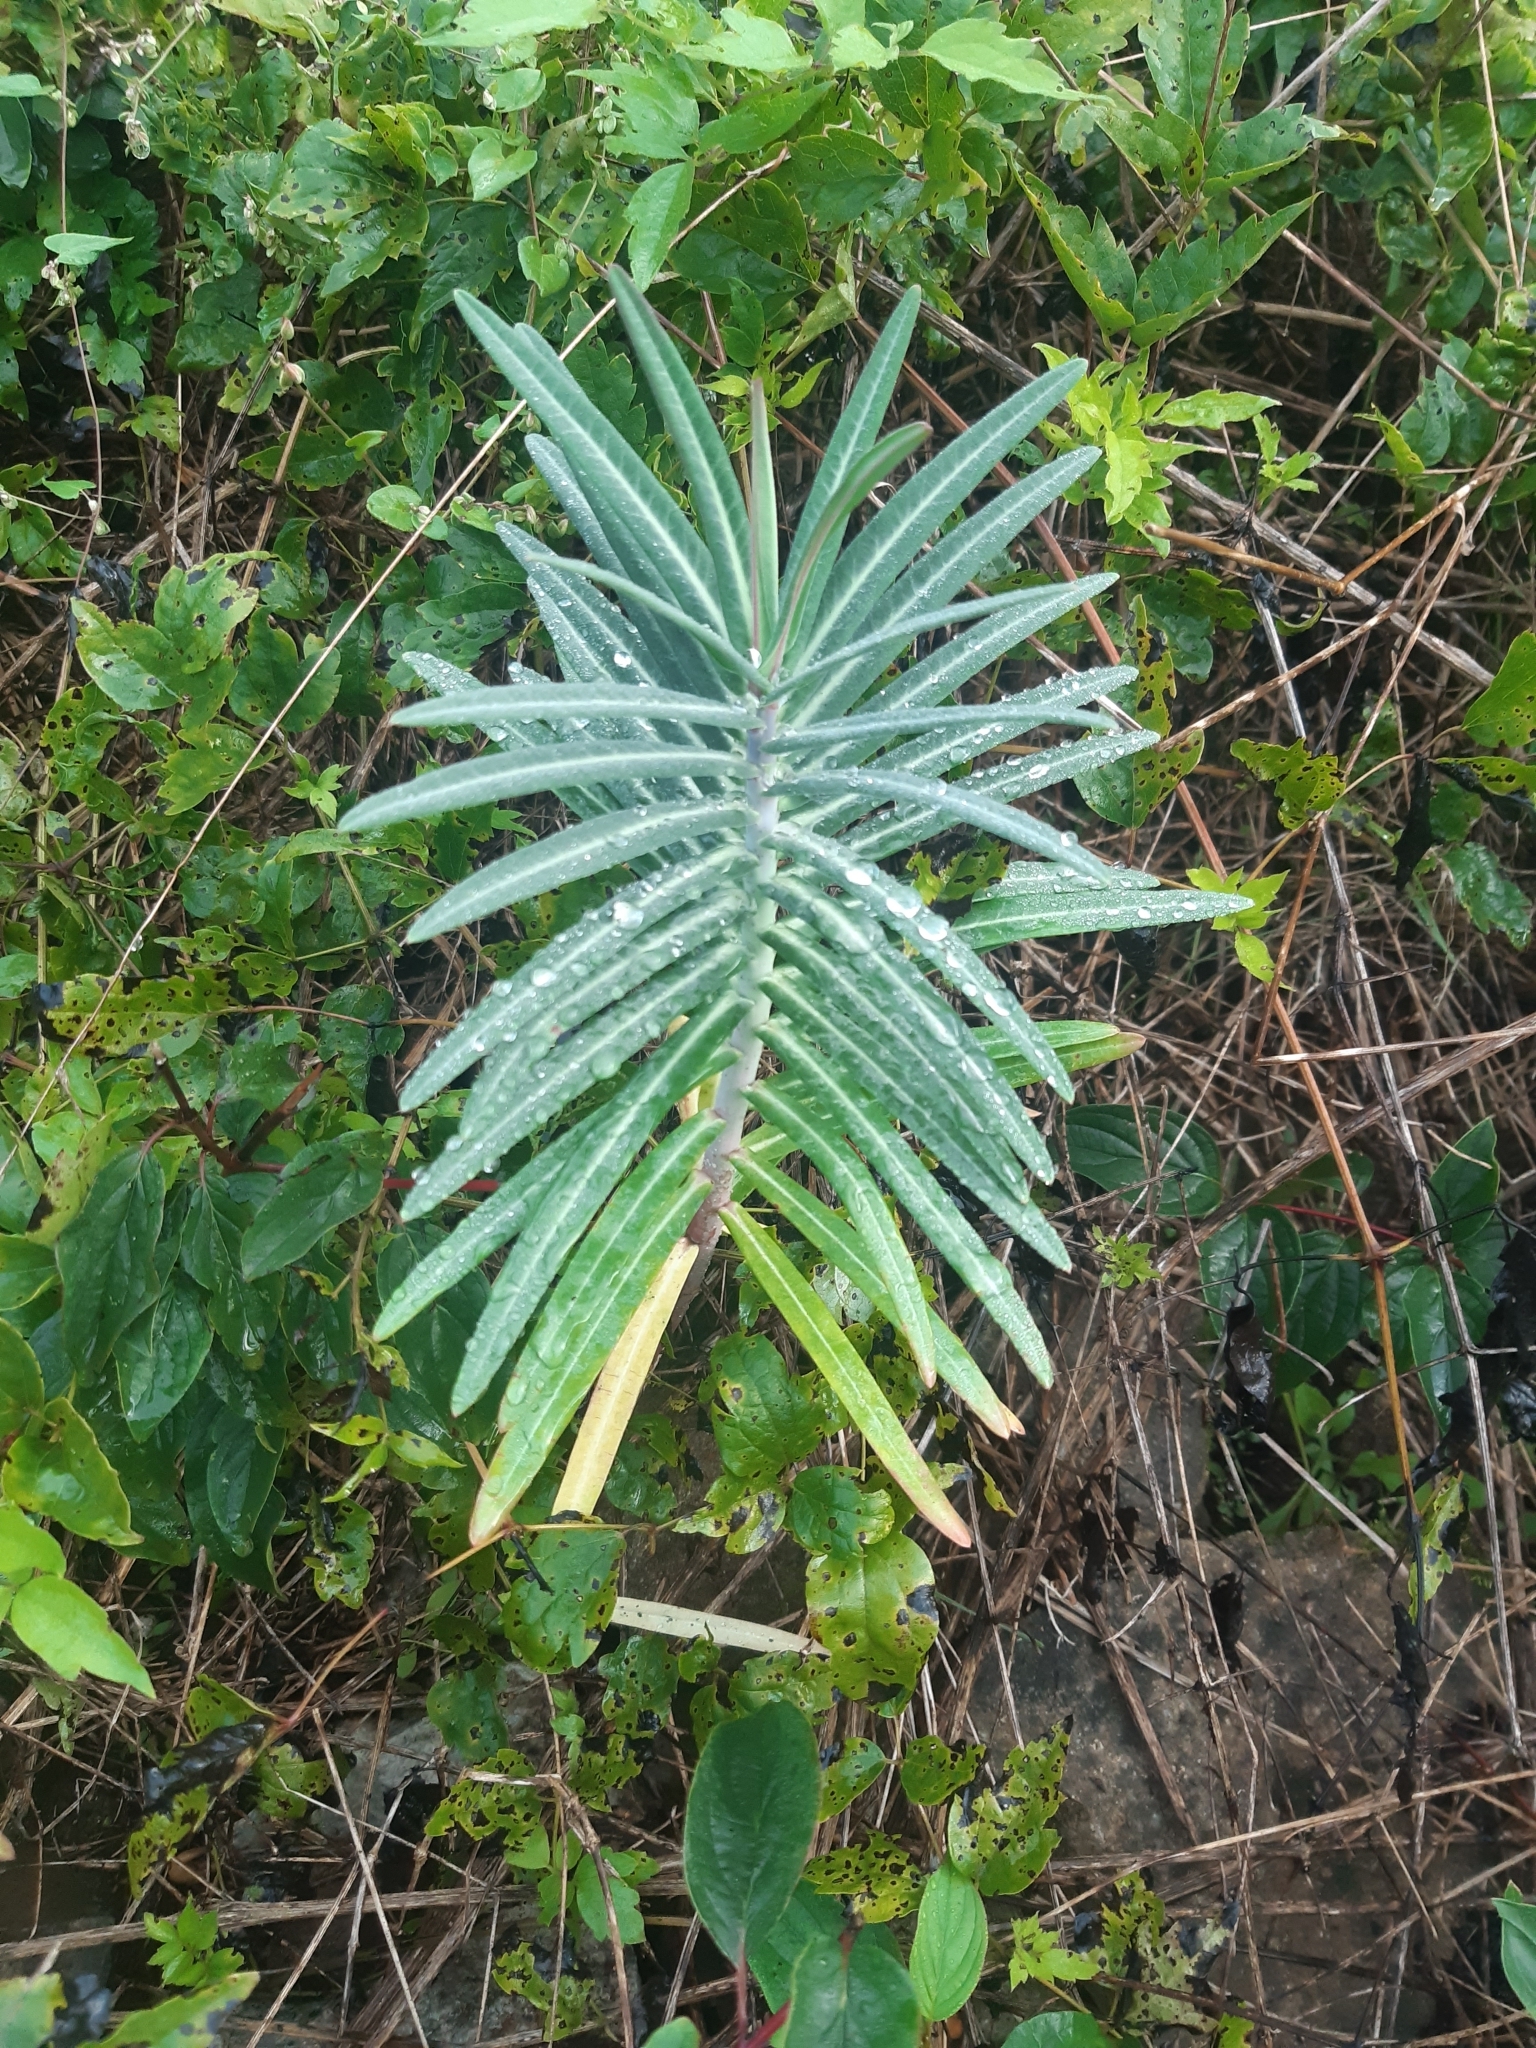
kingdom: Plantae
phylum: Tracheophyta
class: Magnoliopsida
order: Malpighiales
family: Euphorbiaceae
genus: Euphorbia
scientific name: Euphorbia lathyris
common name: Caper spurge
